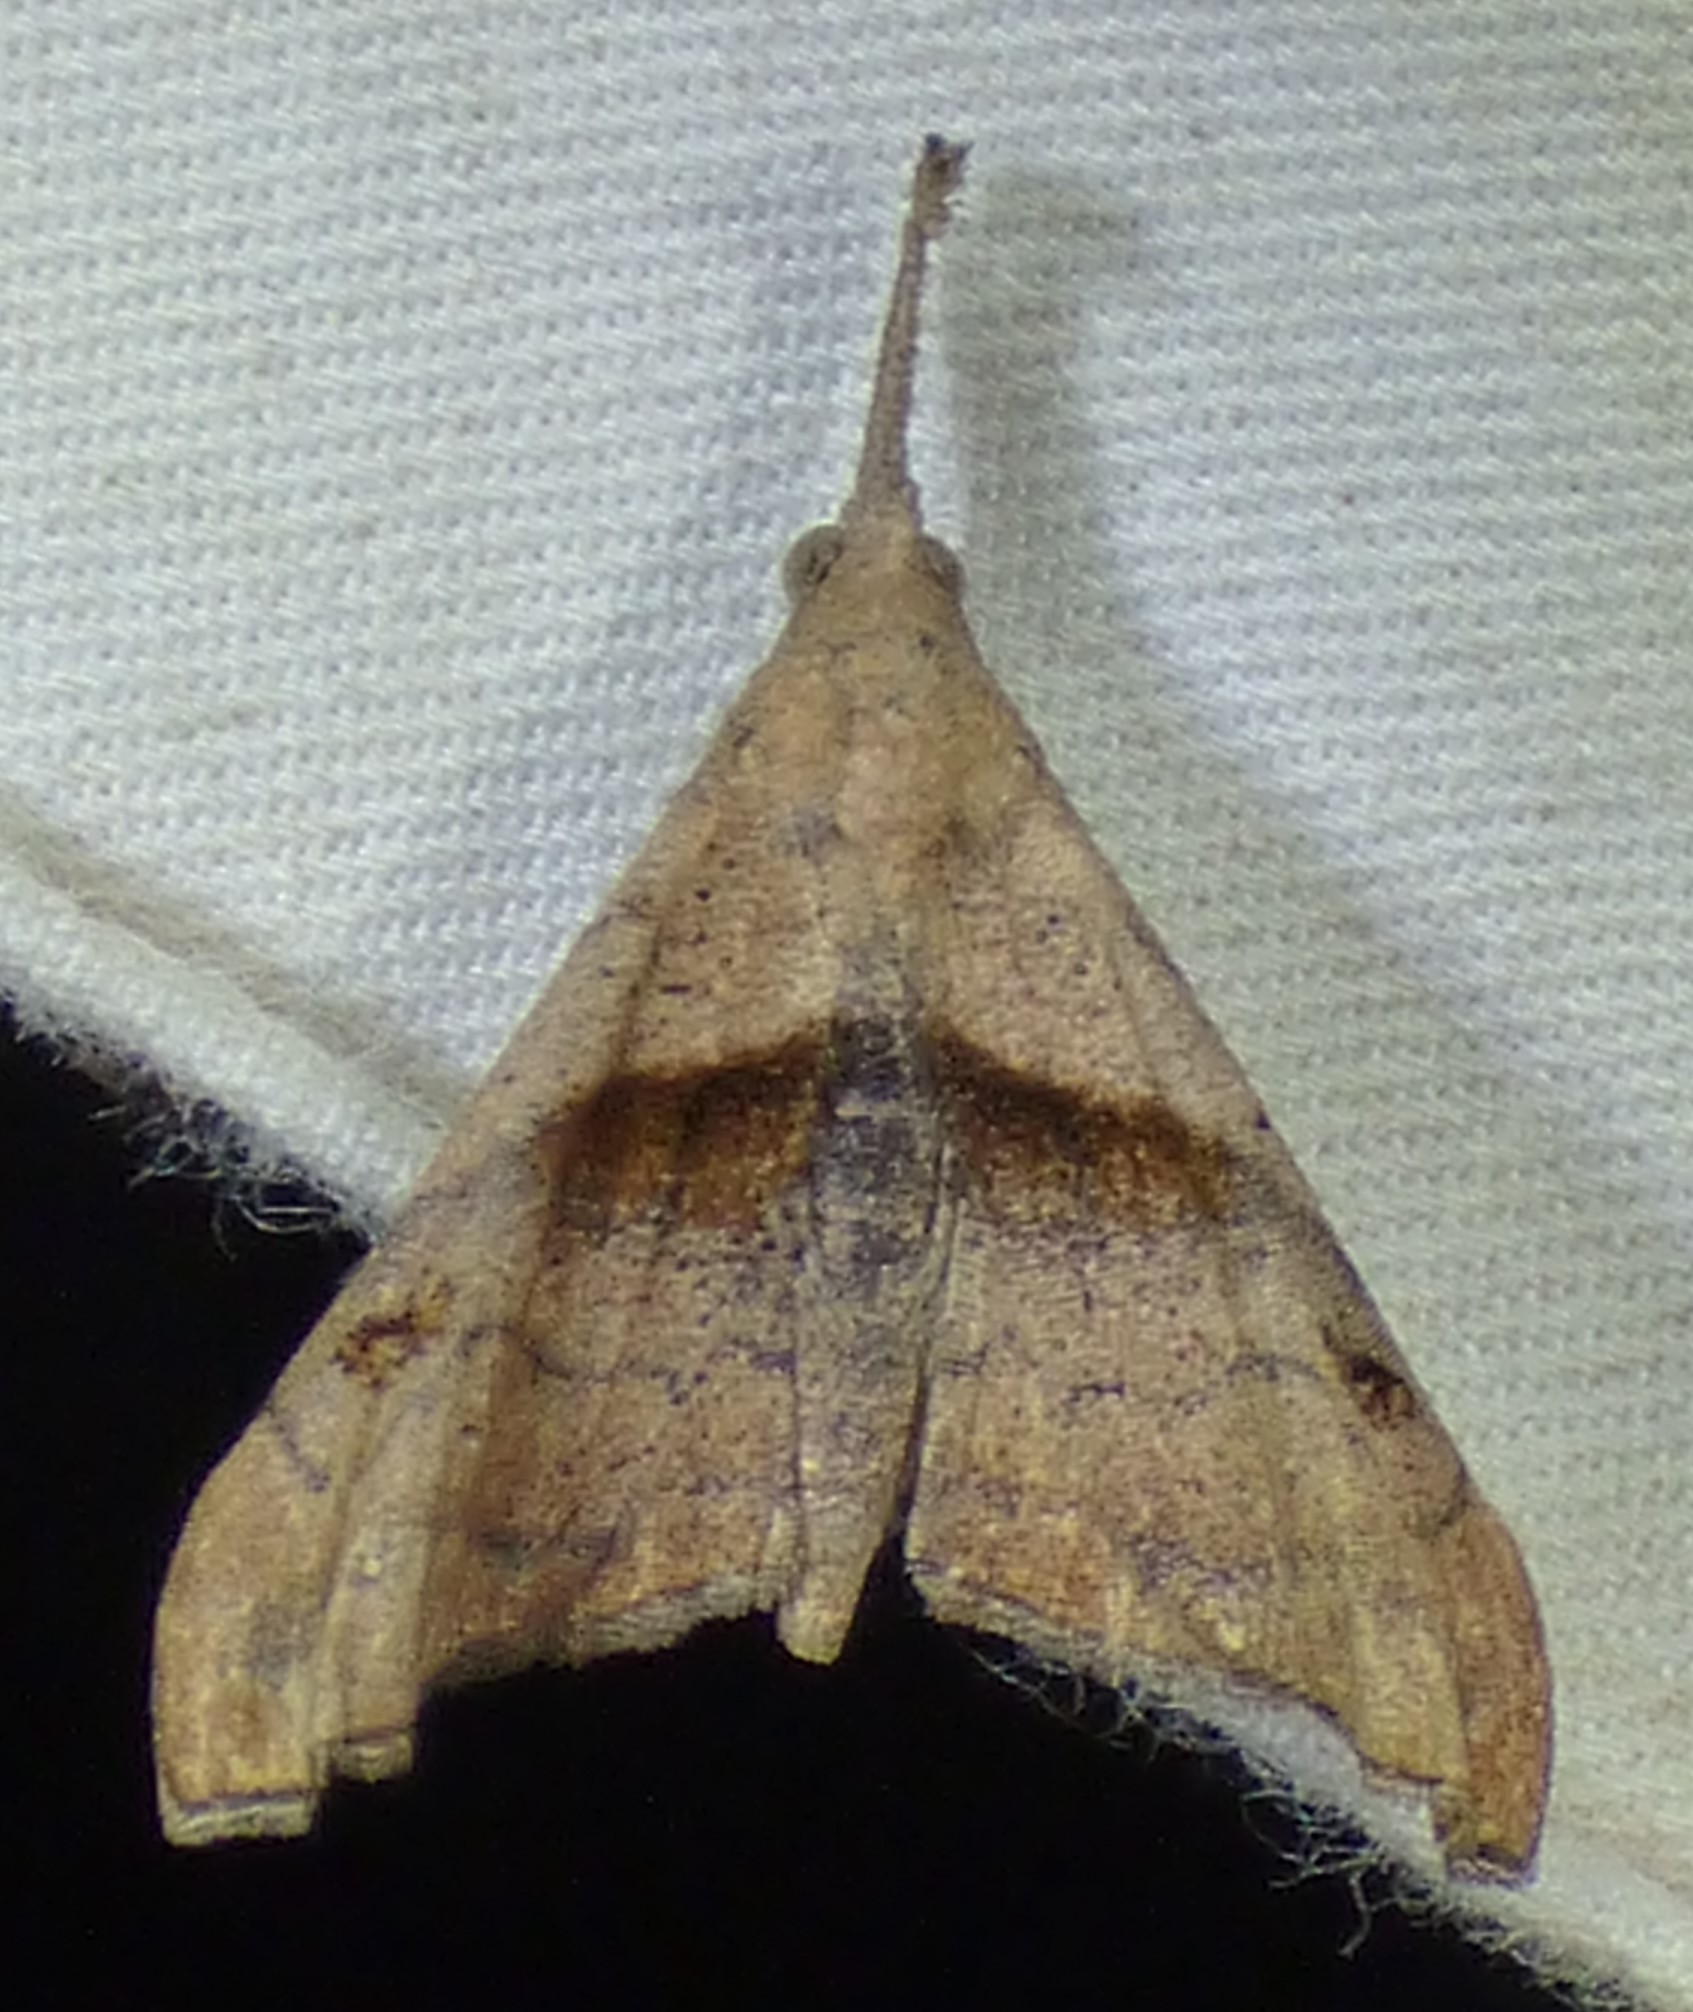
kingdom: Animalia
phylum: Arthropoda
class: Insecta
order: Lepidoptera
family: Erebidae
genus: Palthis
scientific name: Palthis angulalis
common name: Dark-spotted palthis moth
